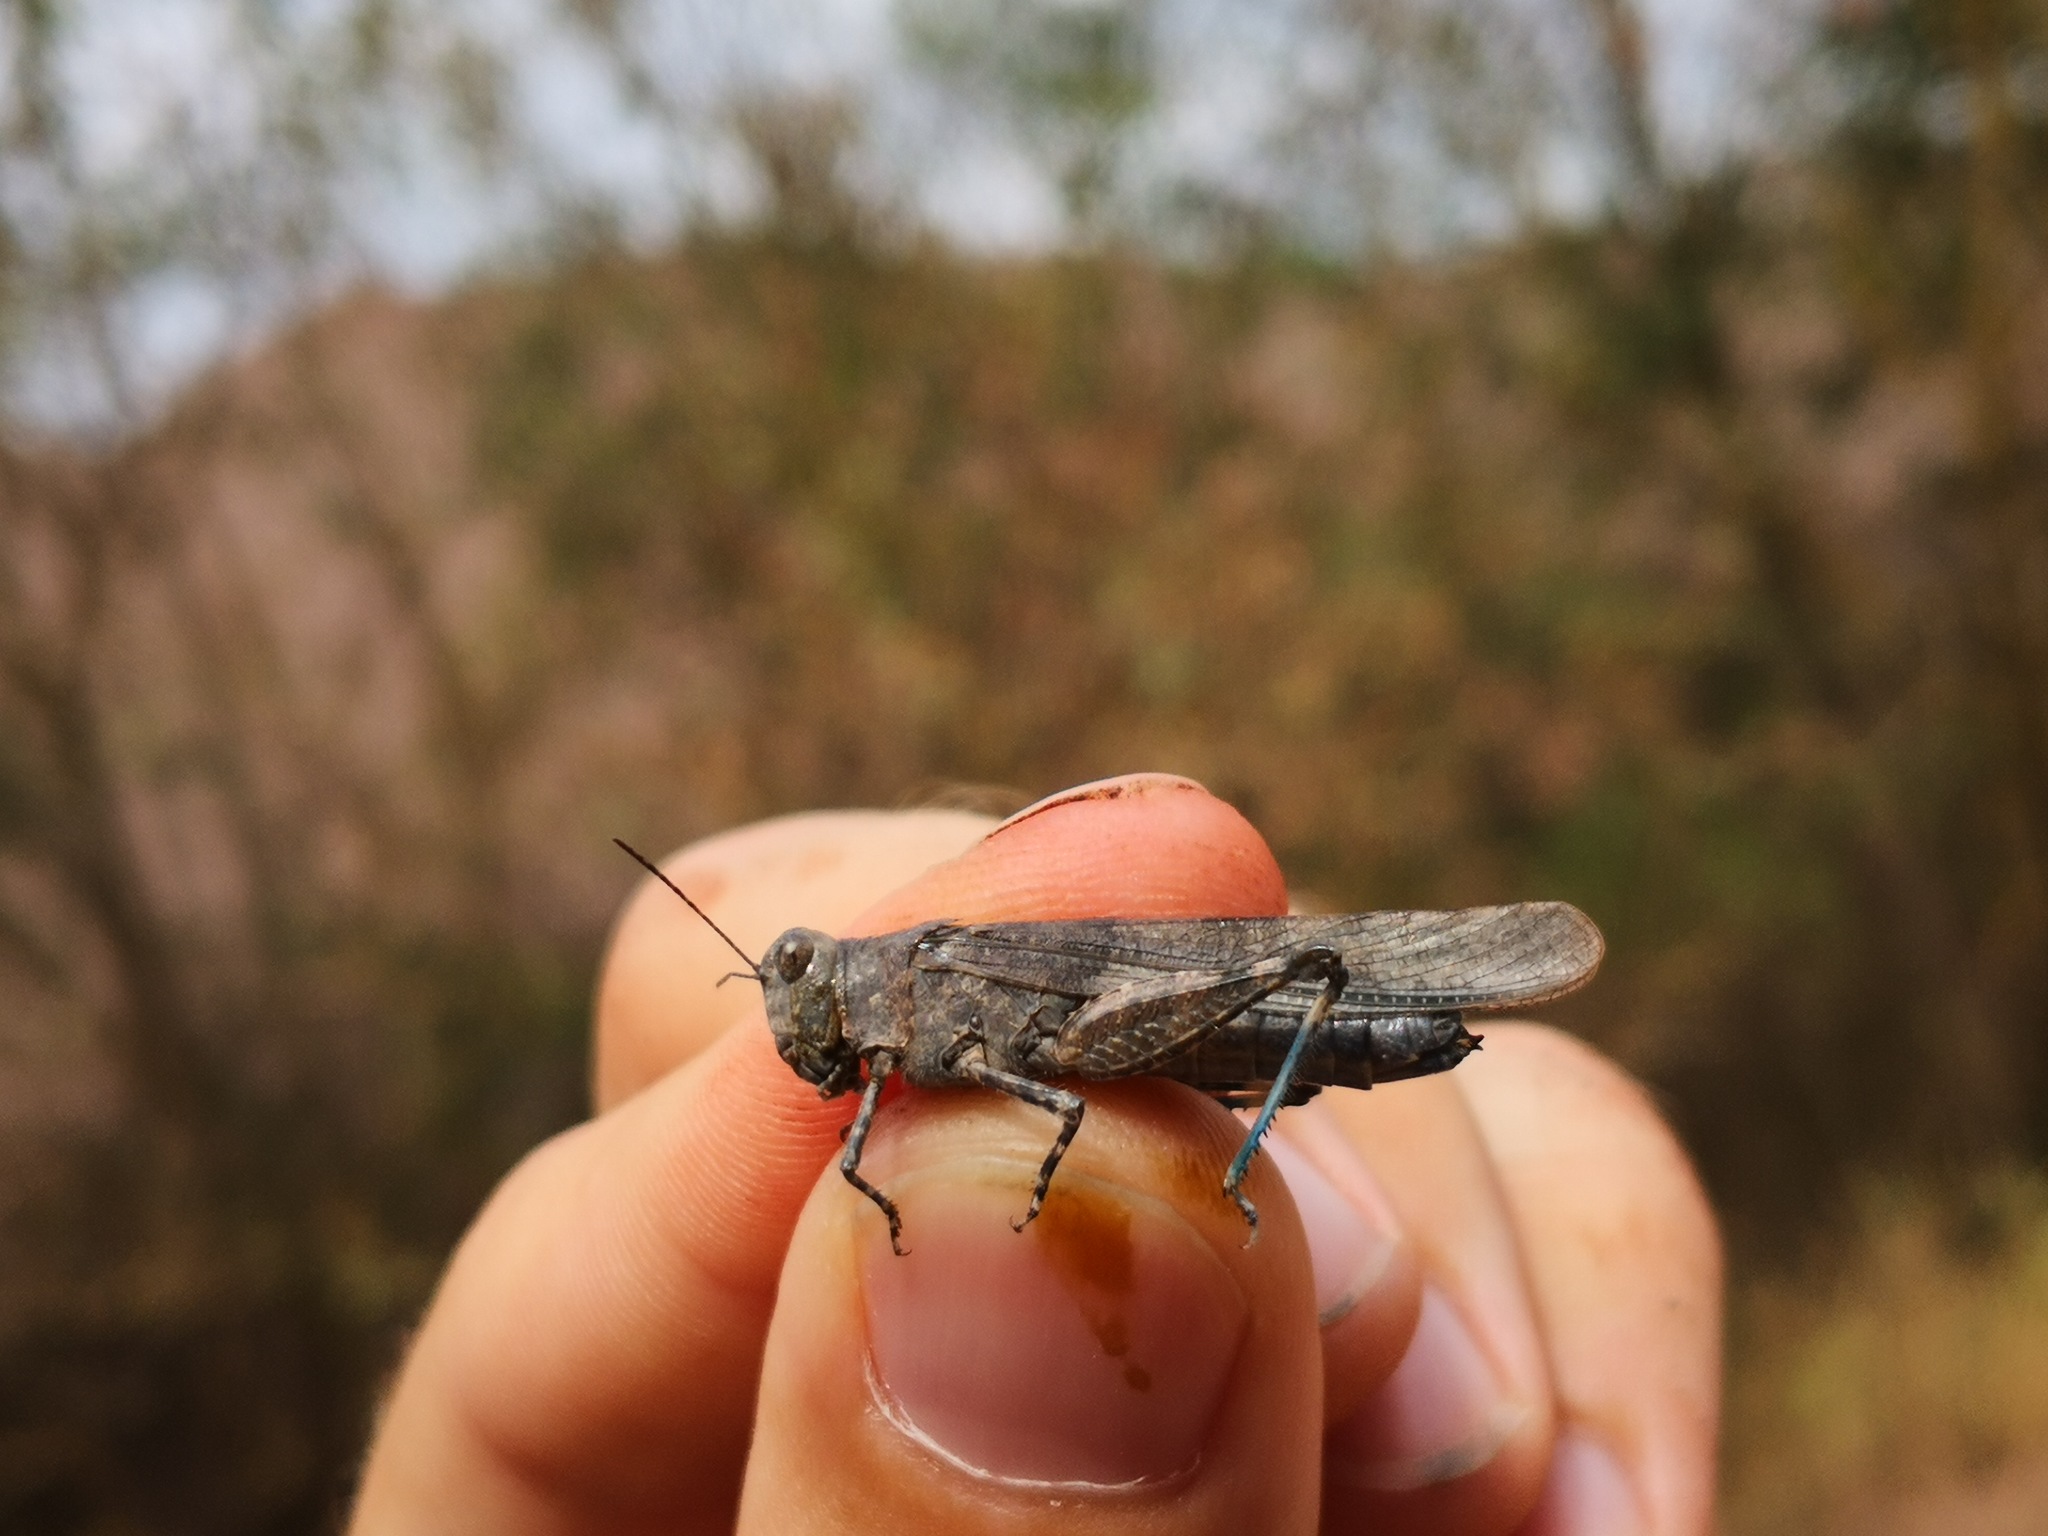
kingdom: Animalia
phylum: Arthropoda
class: Insecta
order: Orthoptera
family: Acrididae
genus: Sphingonotus
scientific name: Sphingonotus caerulans
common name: Blue-winged locust
